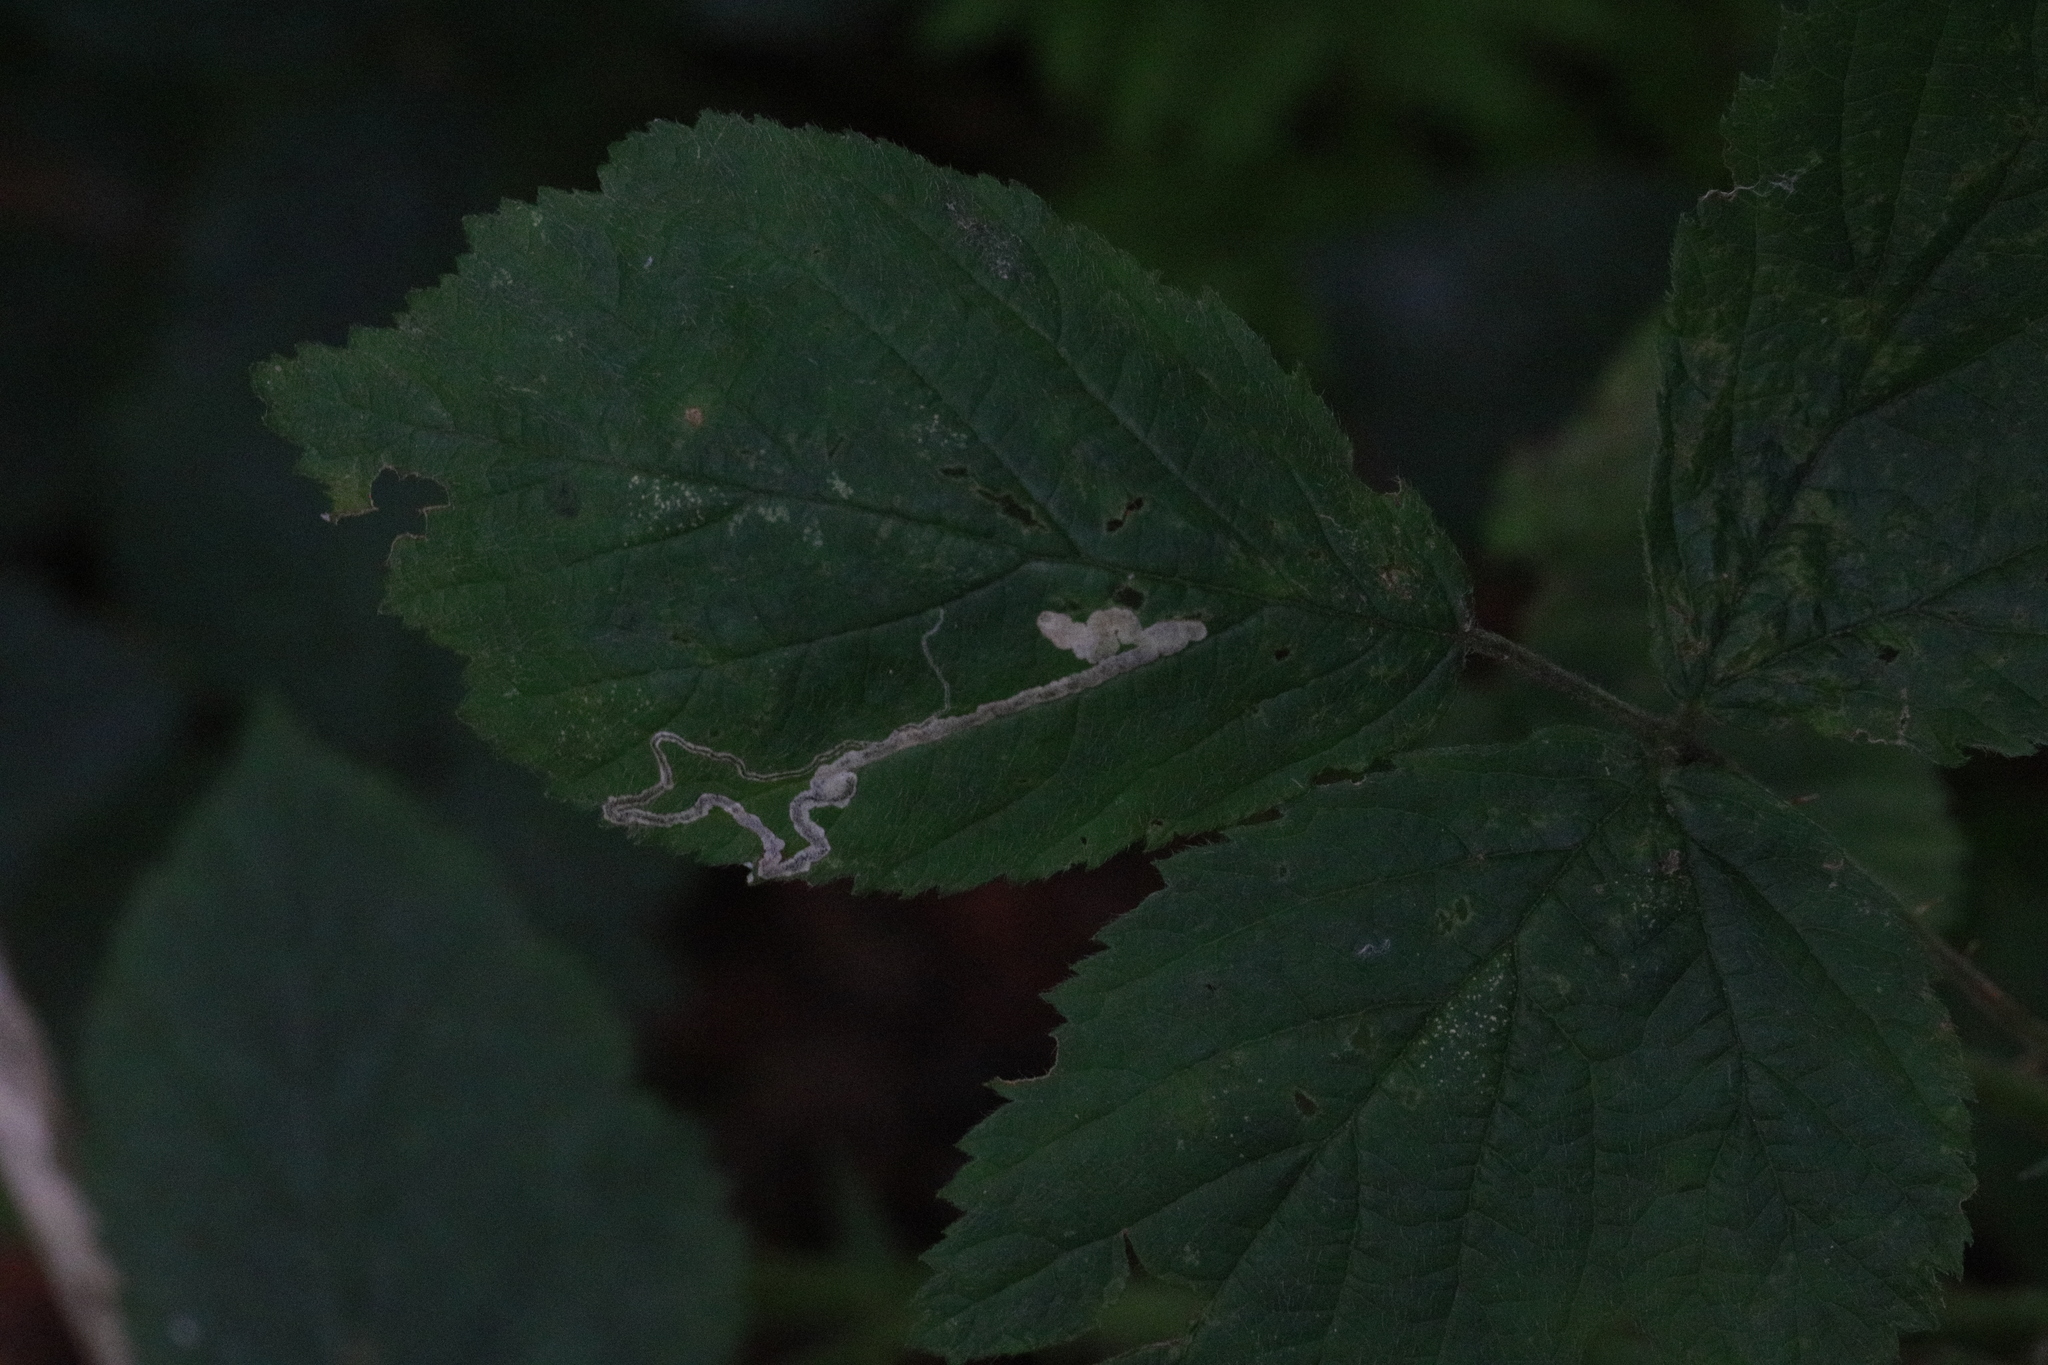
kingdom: Animalia
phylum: Arthropoda
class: Insecta
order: Lepidoptera
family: Nepticulidae
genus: Stigmella
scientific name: Stigmella aurella
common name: Golden pigmy
